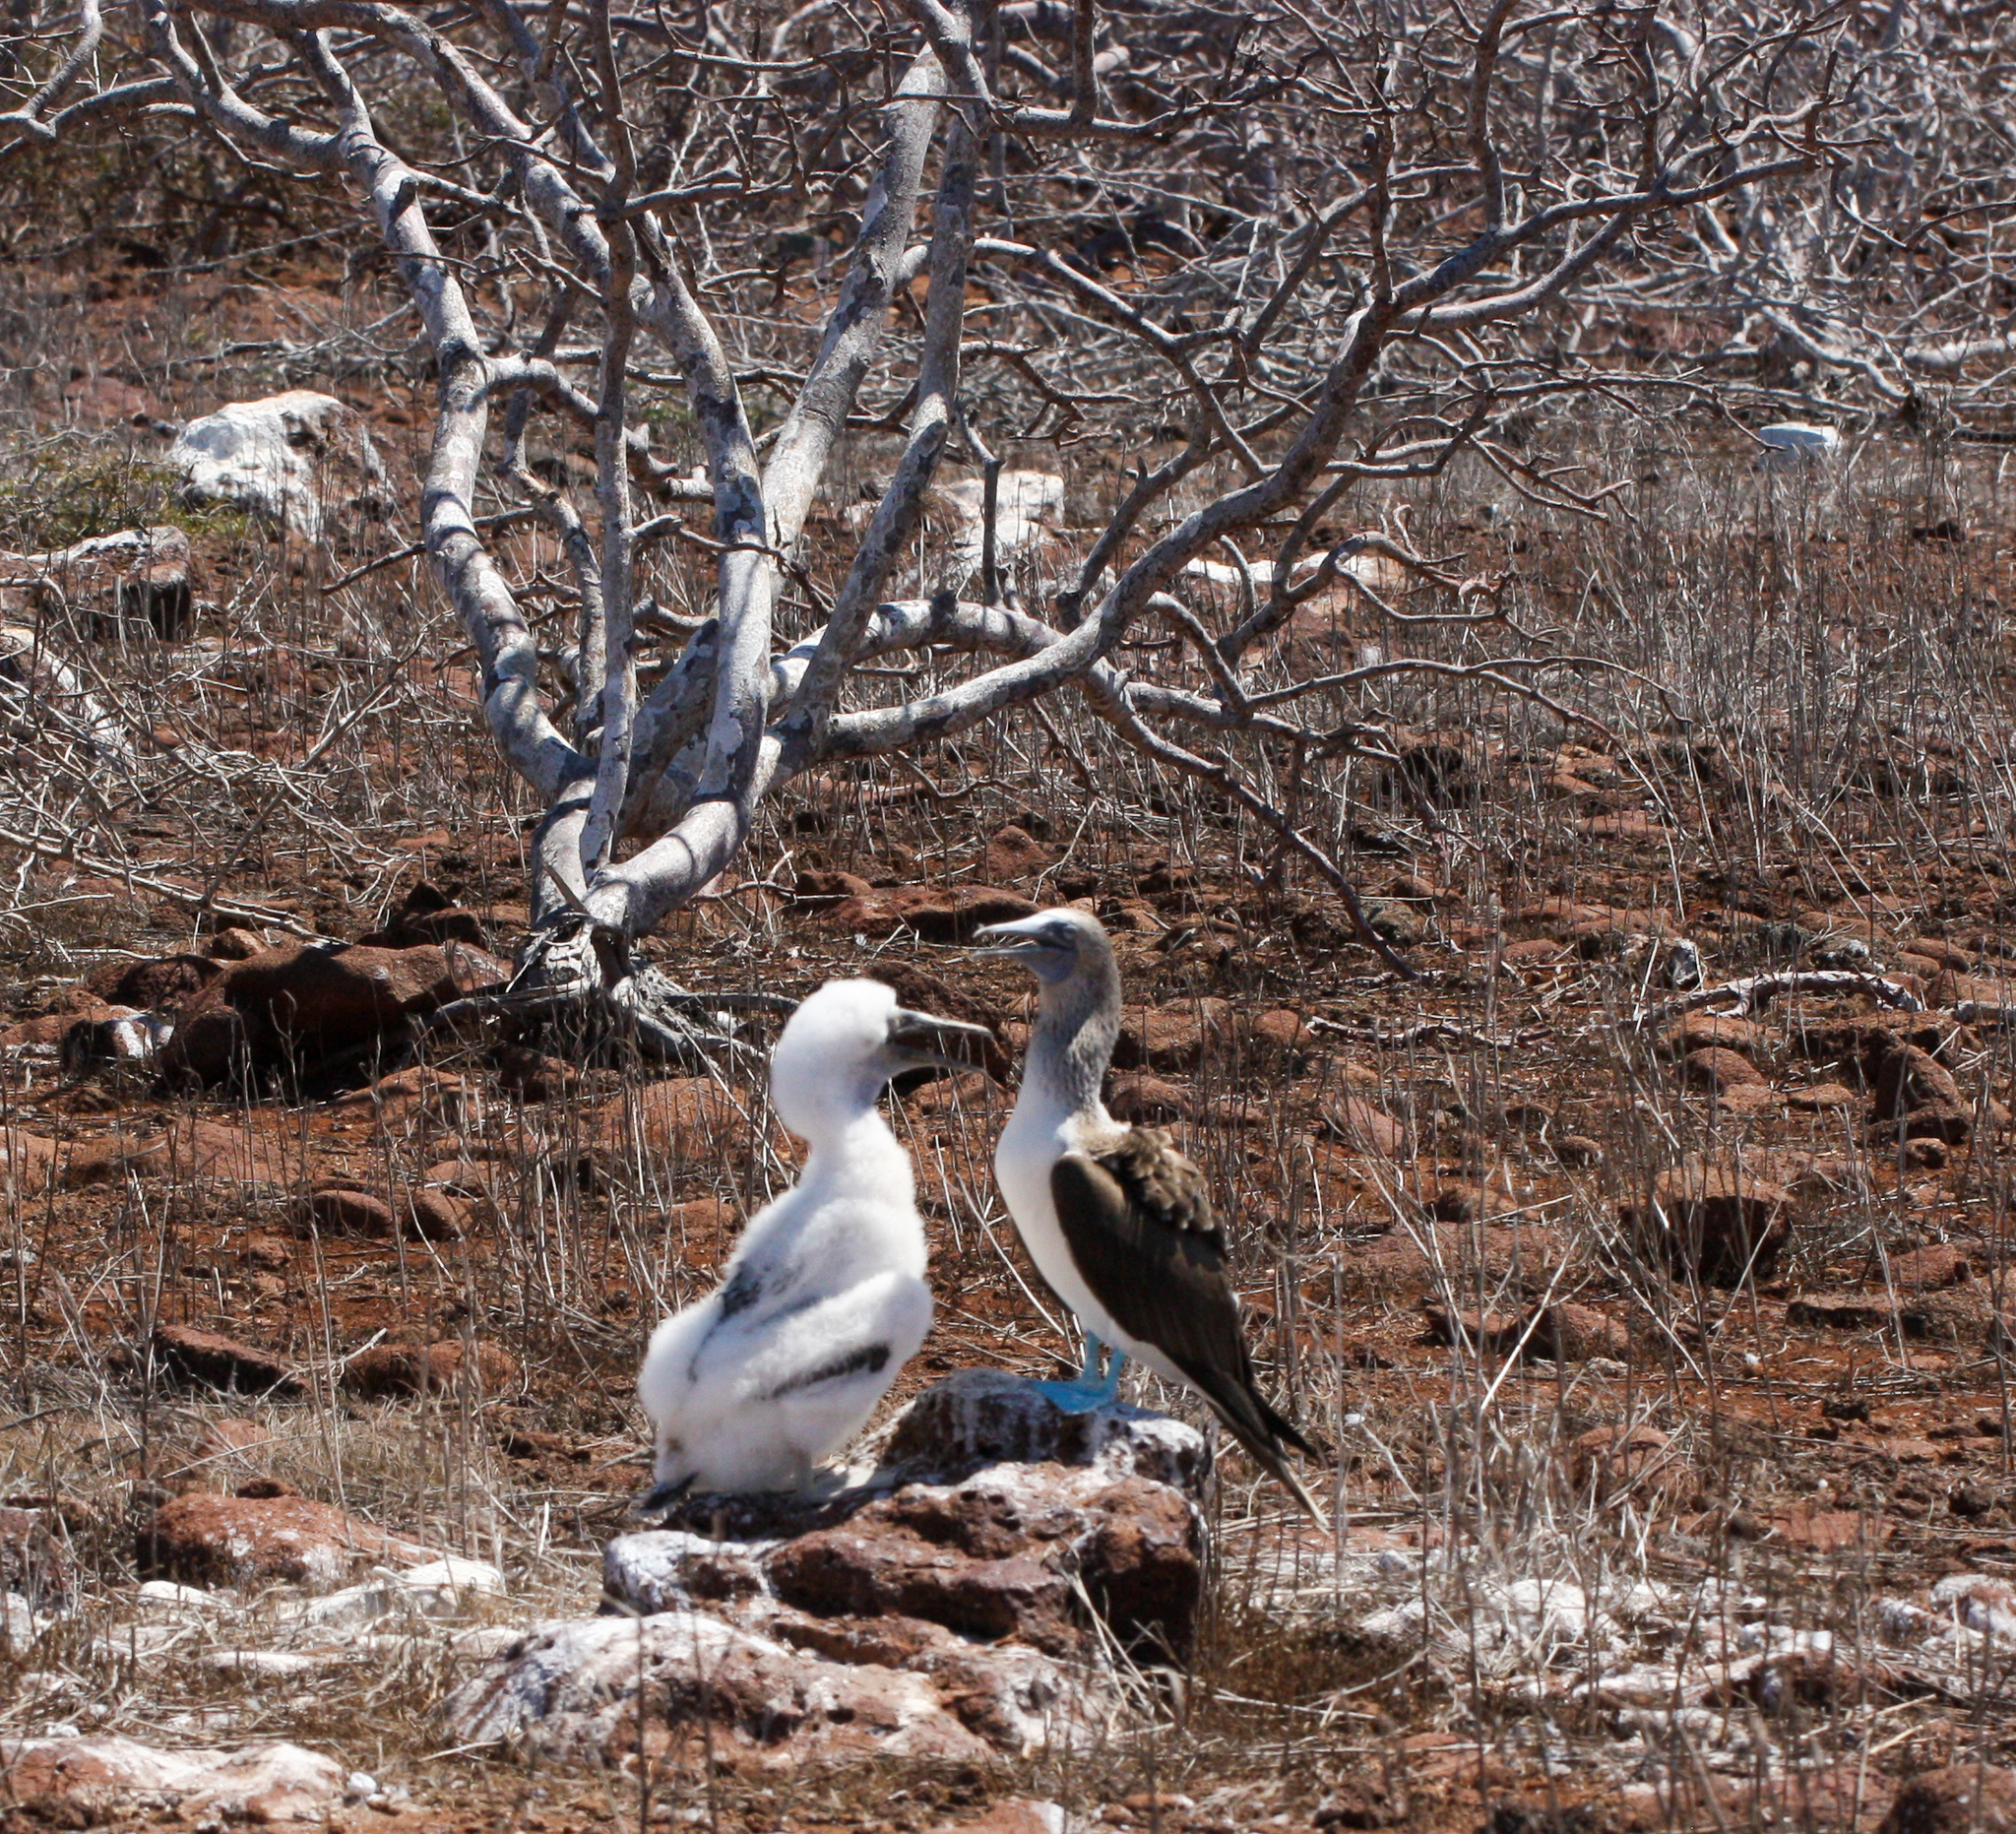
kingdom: Animalia
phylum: Chordata
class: Aves
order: Suliformes
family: Sulidae
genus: Sula
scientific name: Sula nebouxii
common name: Blue-footed booby
